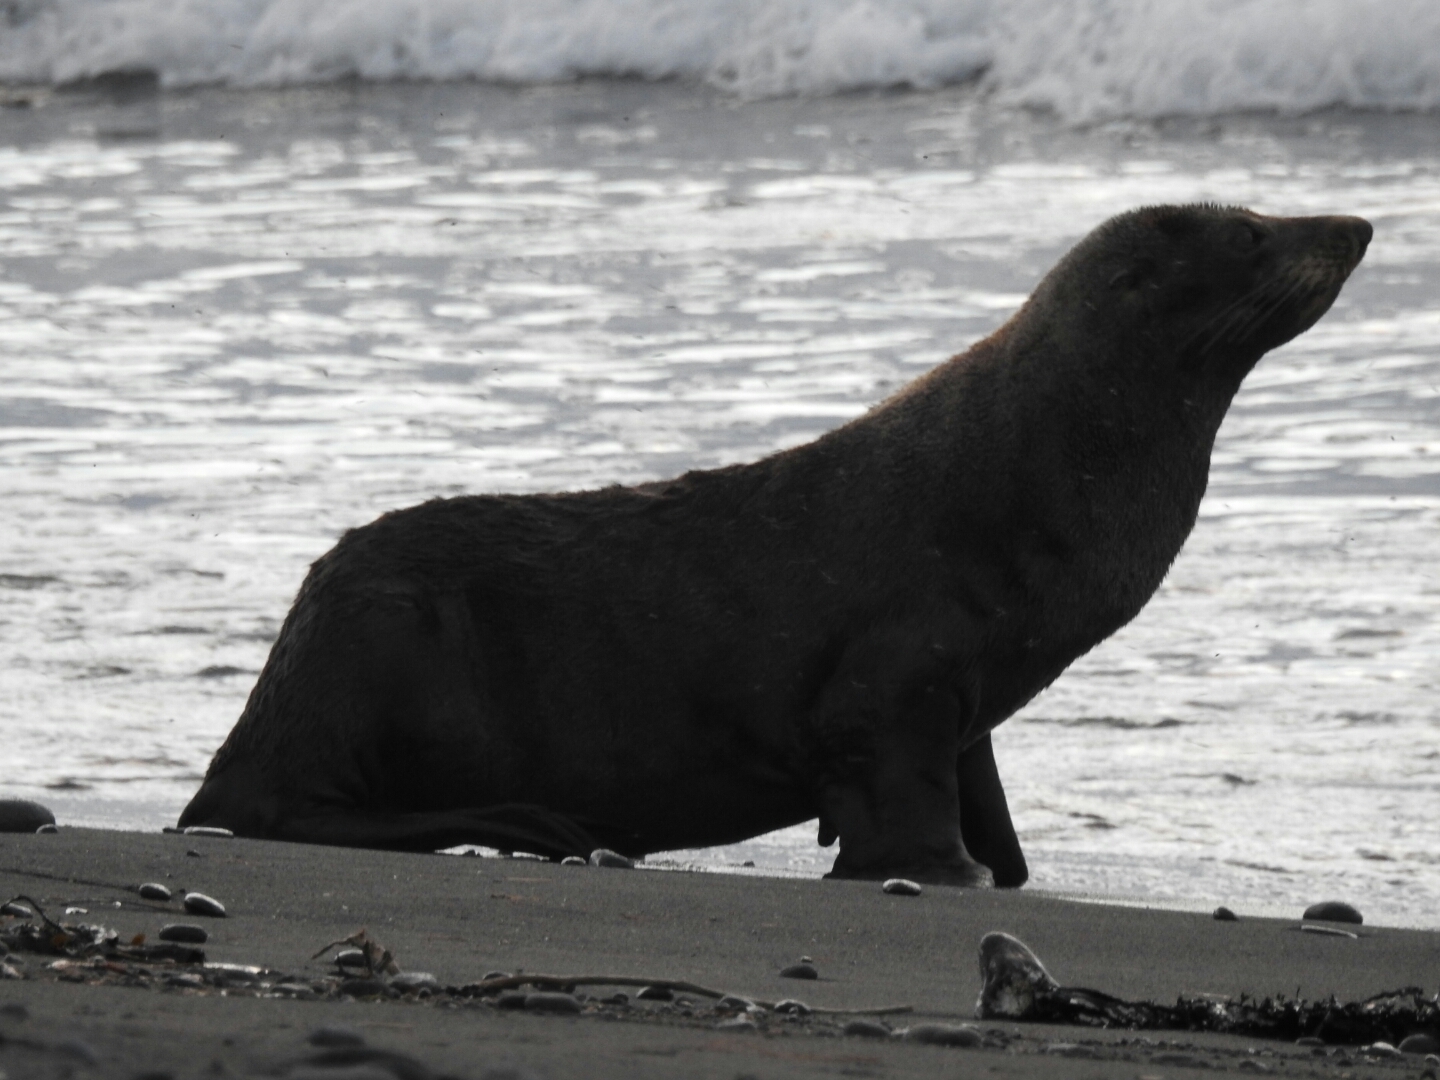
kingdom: Animalia
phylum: Chordata
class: Mammalia
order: Carnivora
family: Otariidae
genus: Arctocephalus
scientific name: Arctocephalus forsteri
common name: New zealand fur seal
